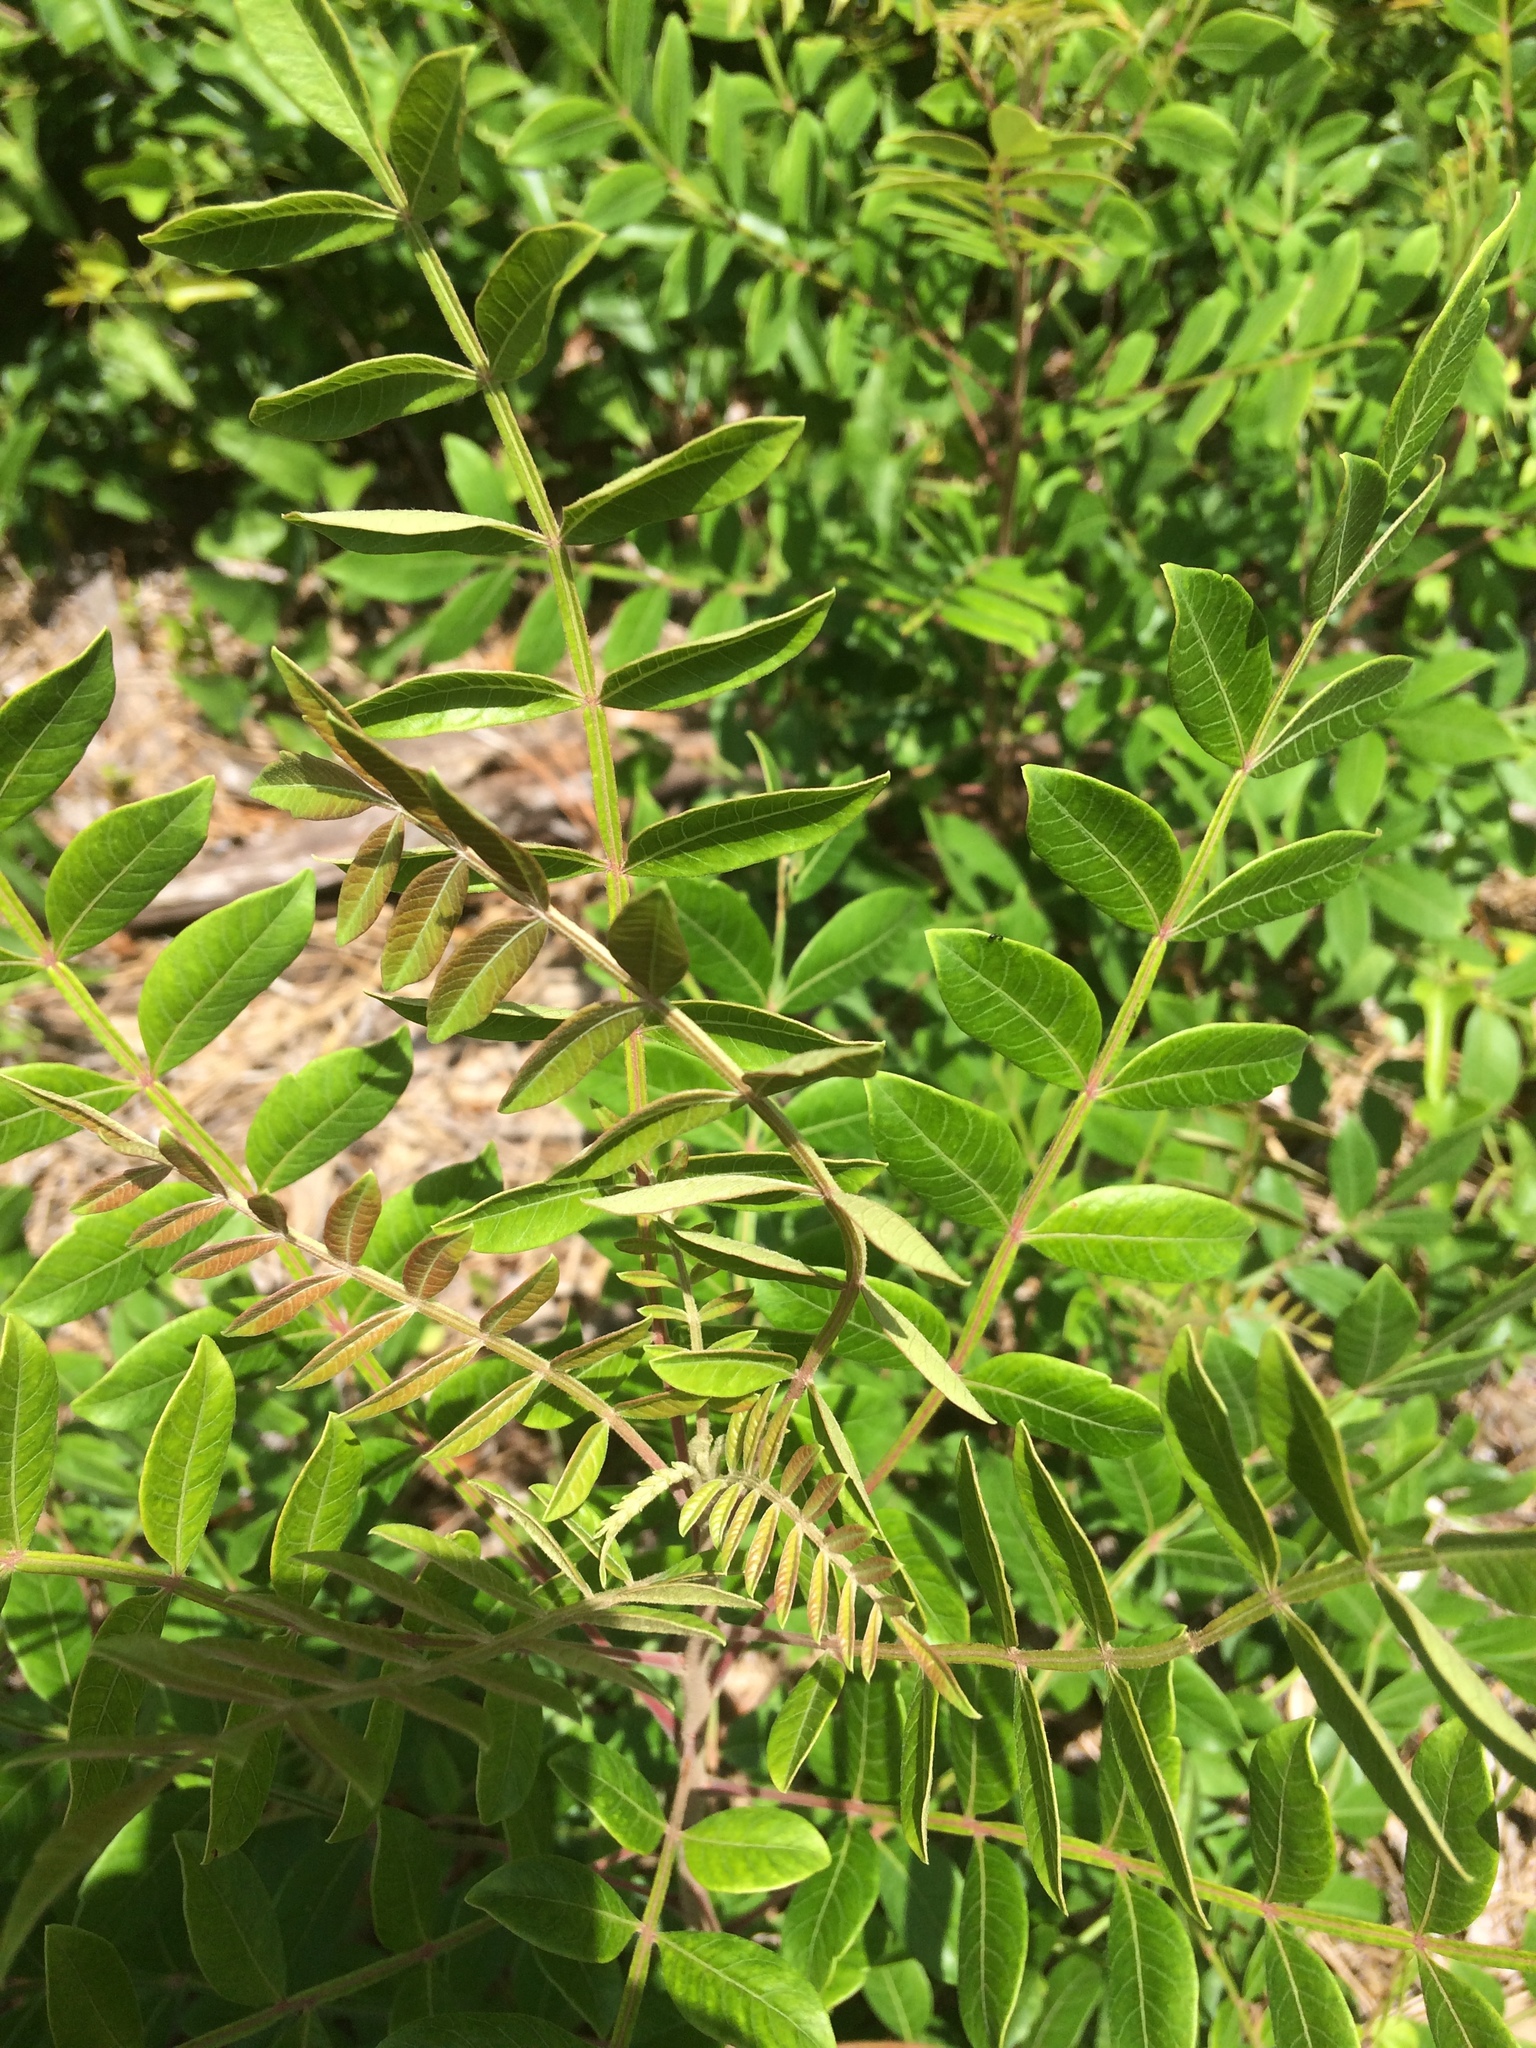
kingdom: Plantae
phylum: Tracheophyta
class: Magnoliopsida
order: Sapindales
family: Anacardiaceae
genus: Rhus
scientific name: Rhus copallina
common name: Shining sumac
